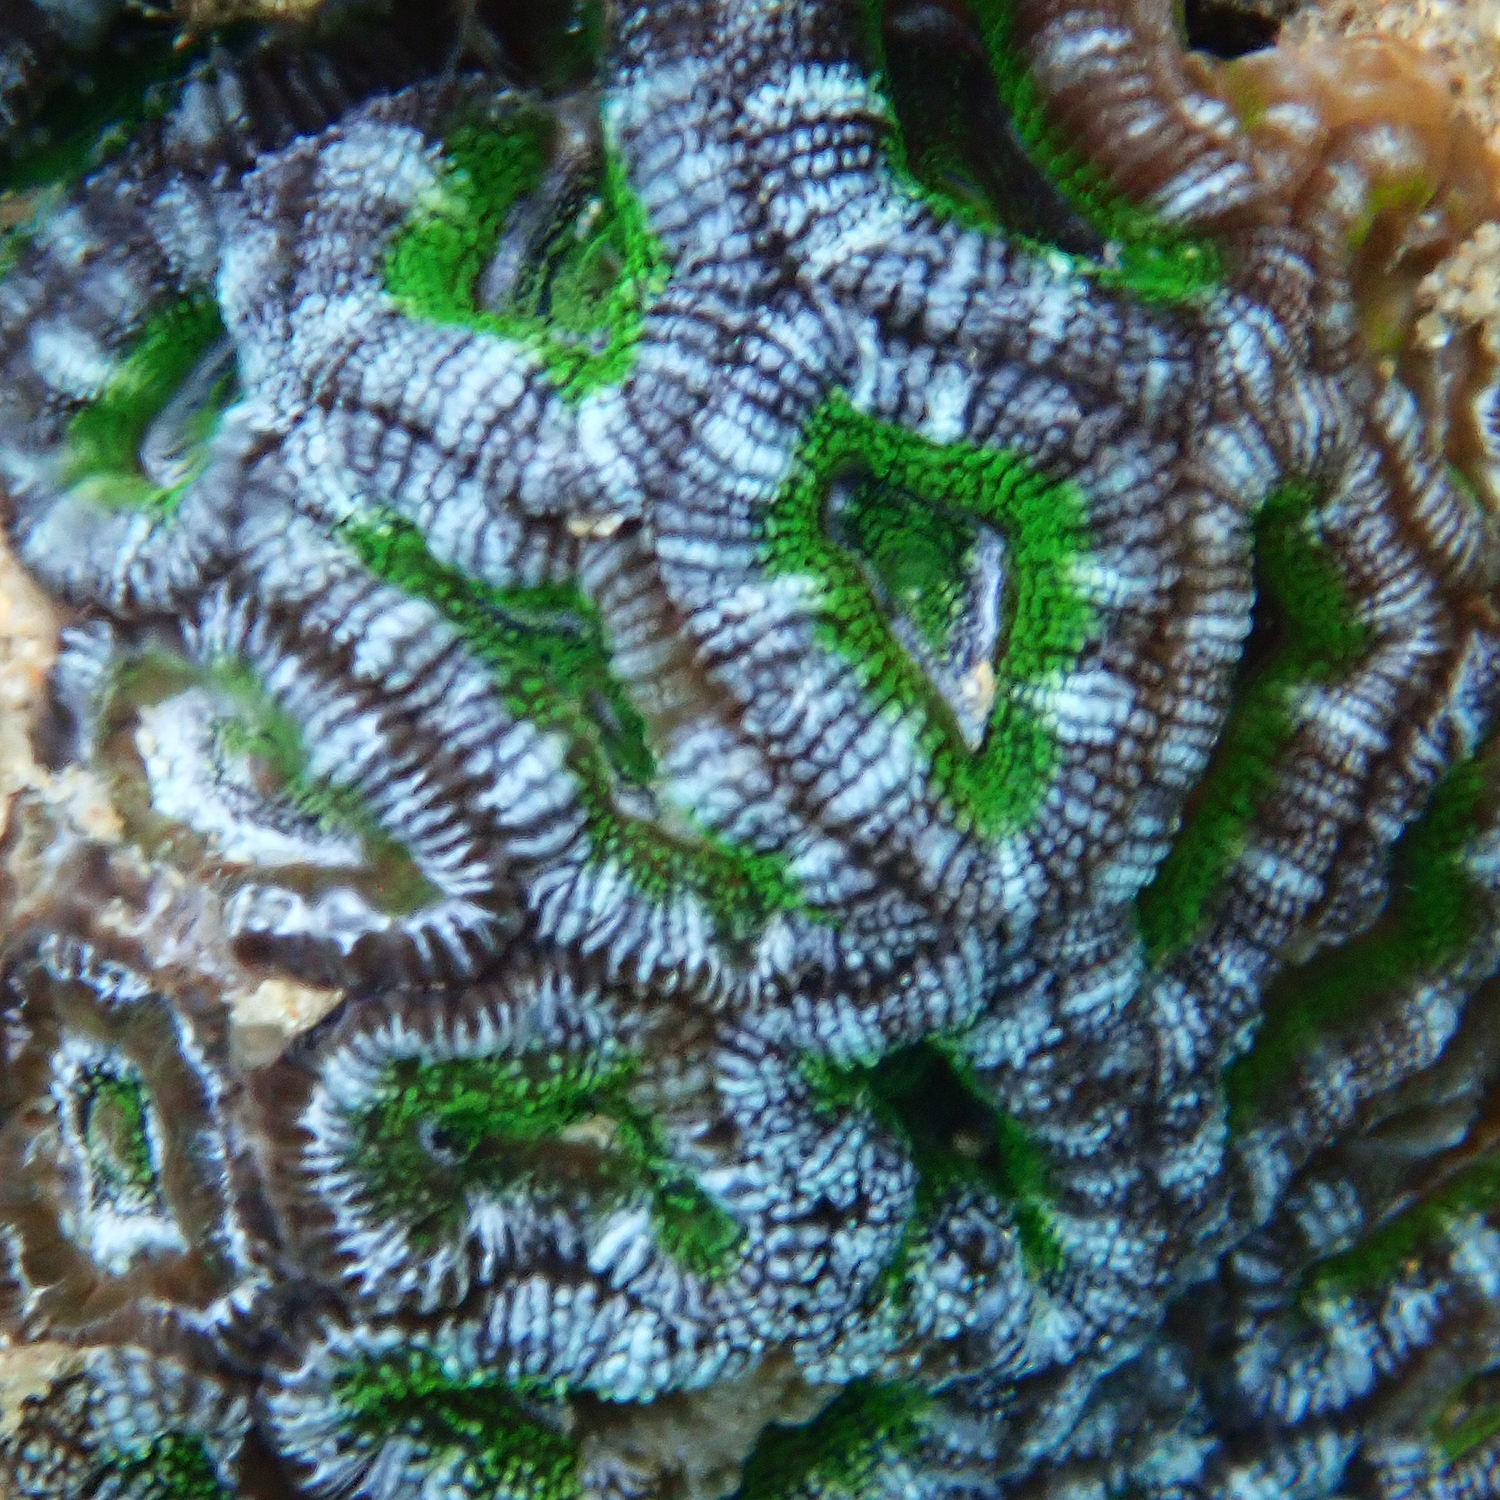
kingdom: Animalia
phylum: Cnidaria
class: Anthozoa
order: Scleractinia
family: Lobophylliidae
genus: Micromussa
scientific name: Micromussa lordhowensis
